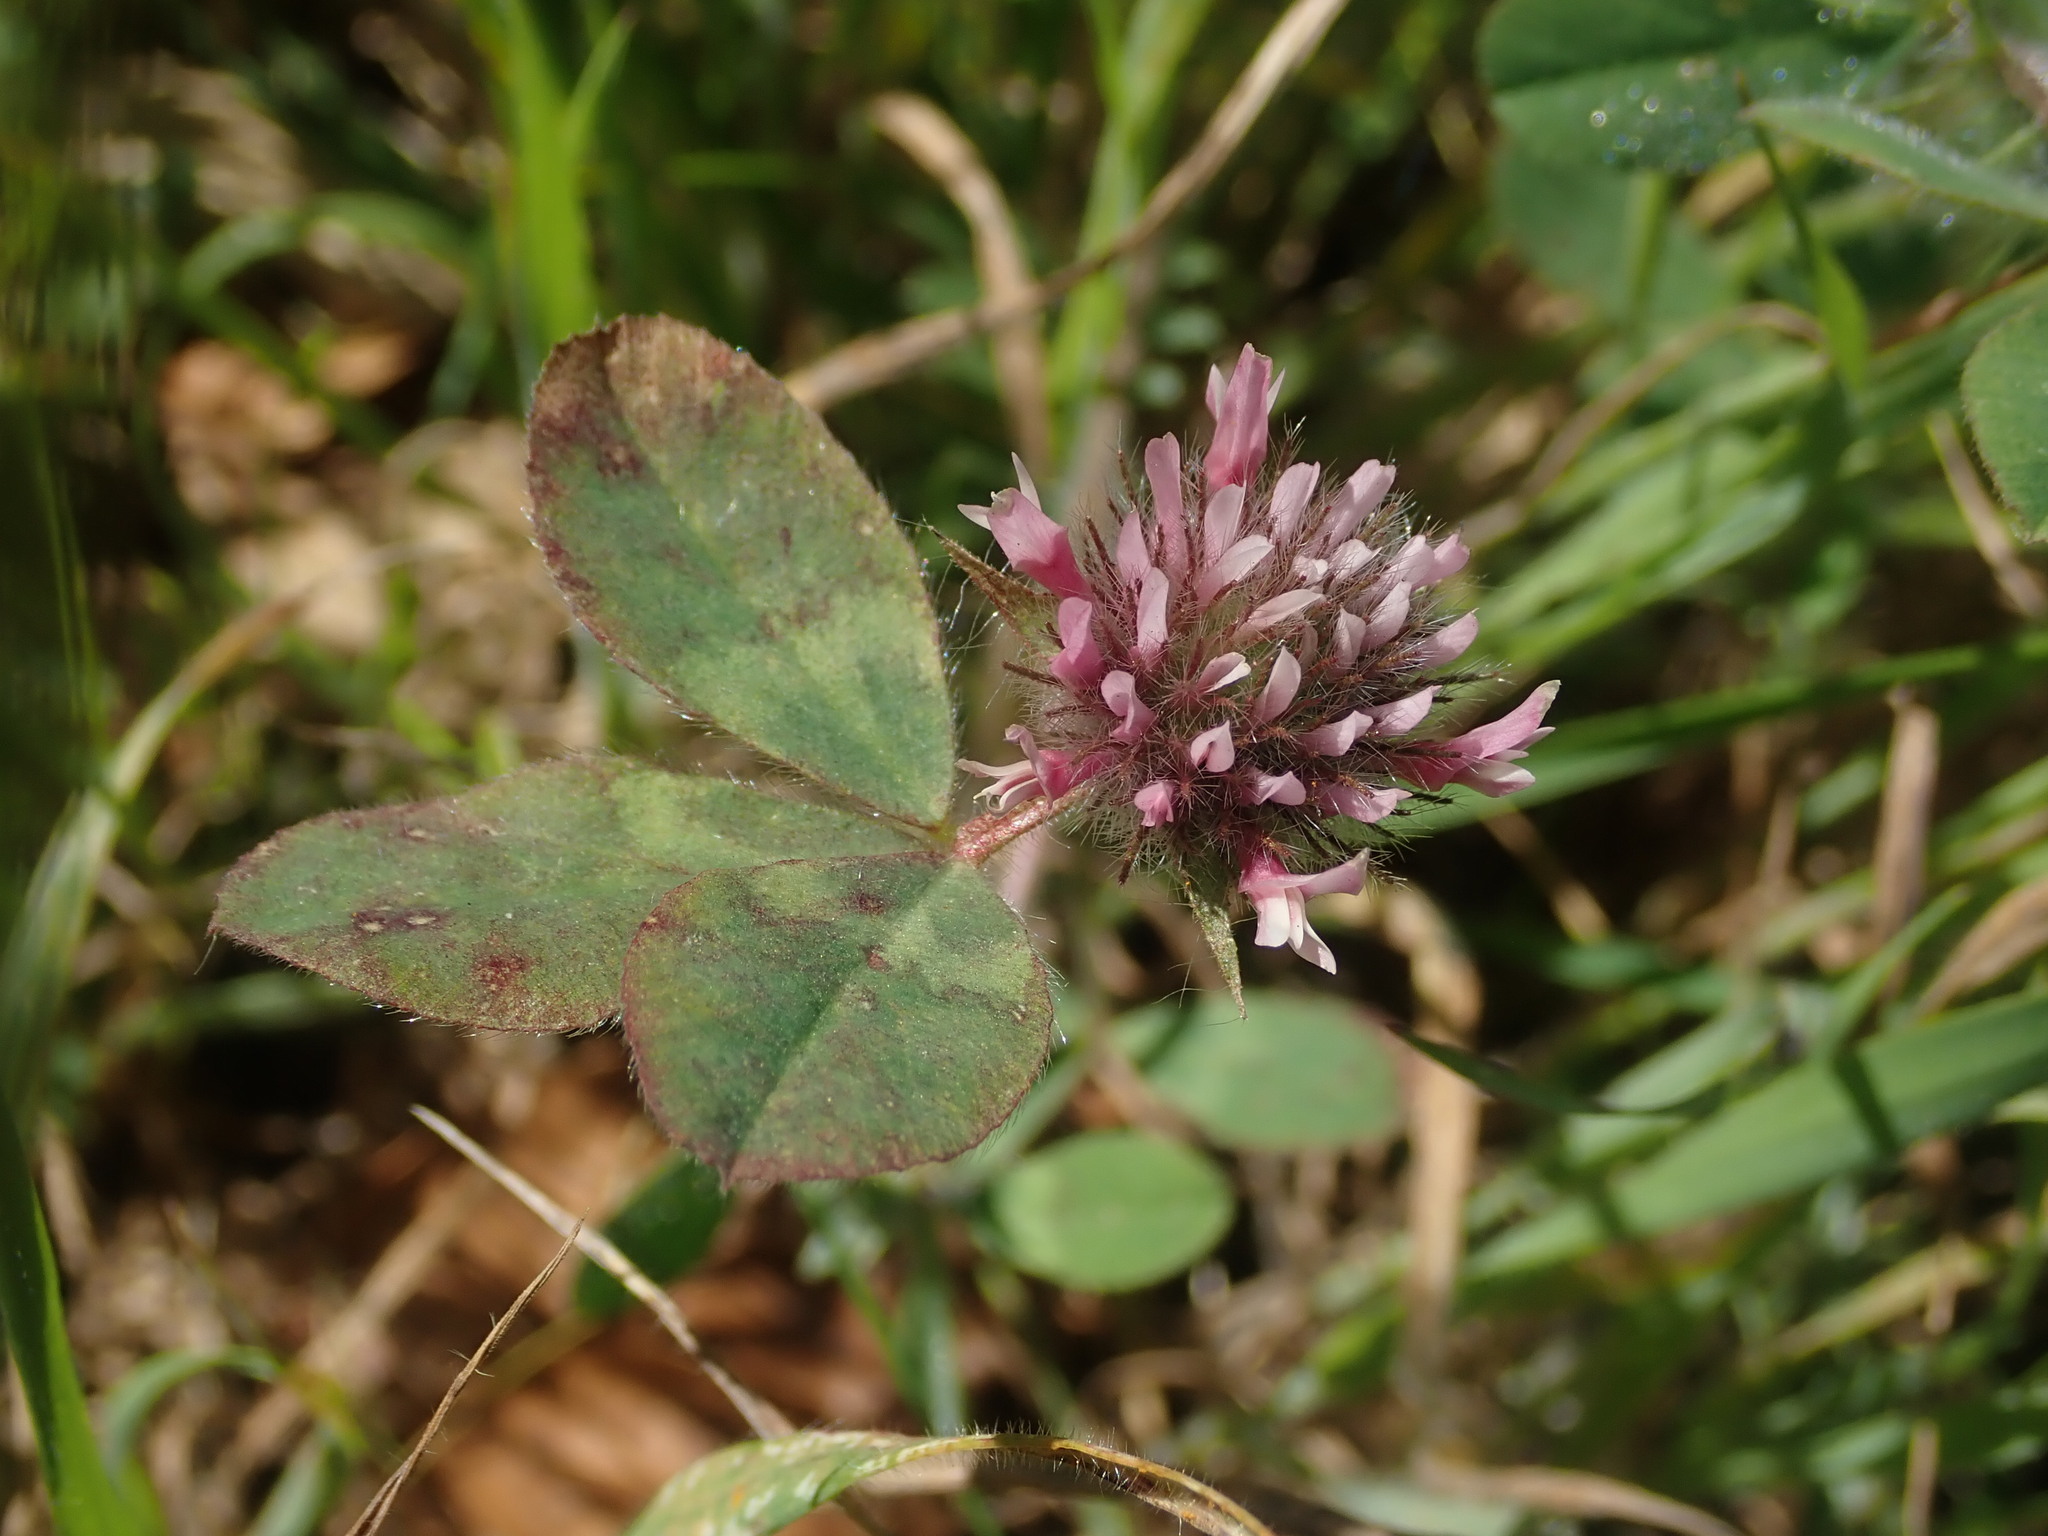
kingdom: Plantae
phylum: Tracheophyta
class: Magnoliopsida
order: Fabales
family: Fabaceae
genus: Trifolium
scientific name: Trifolium hirtum
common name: Rose clover
